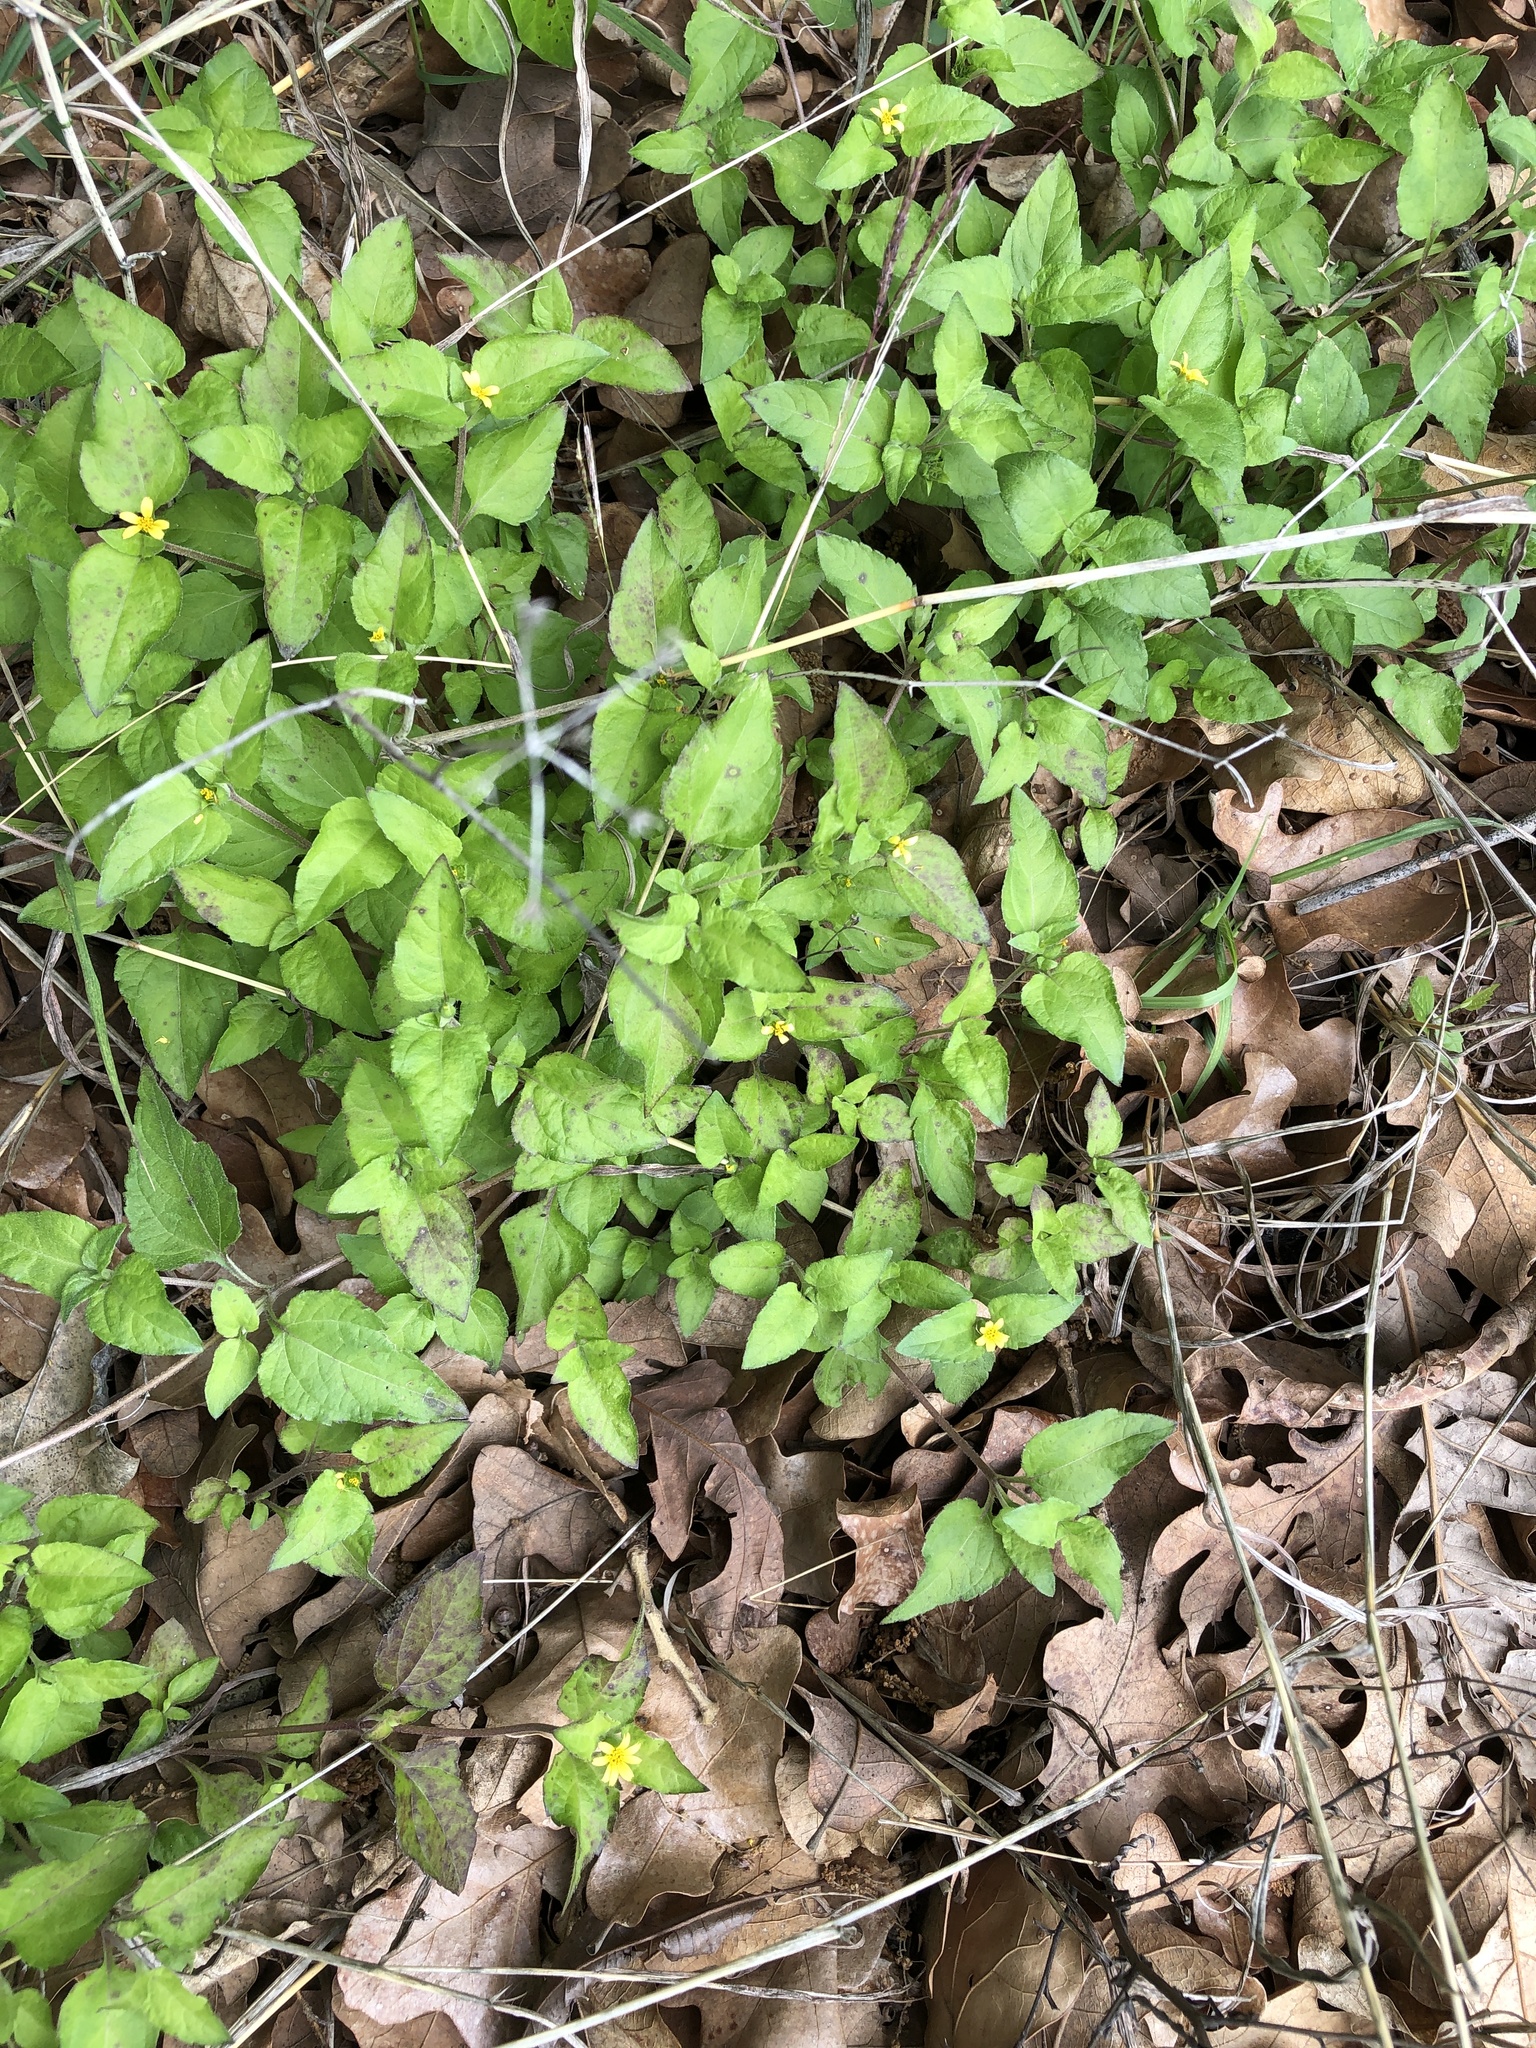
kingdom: Plantae
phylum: Tracheophyta
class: Magnoliopsida
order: Asterales
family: Asteraceae
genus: Calyptocarpus
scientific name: Calyptocarpus vialis
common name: Straggler daisy
